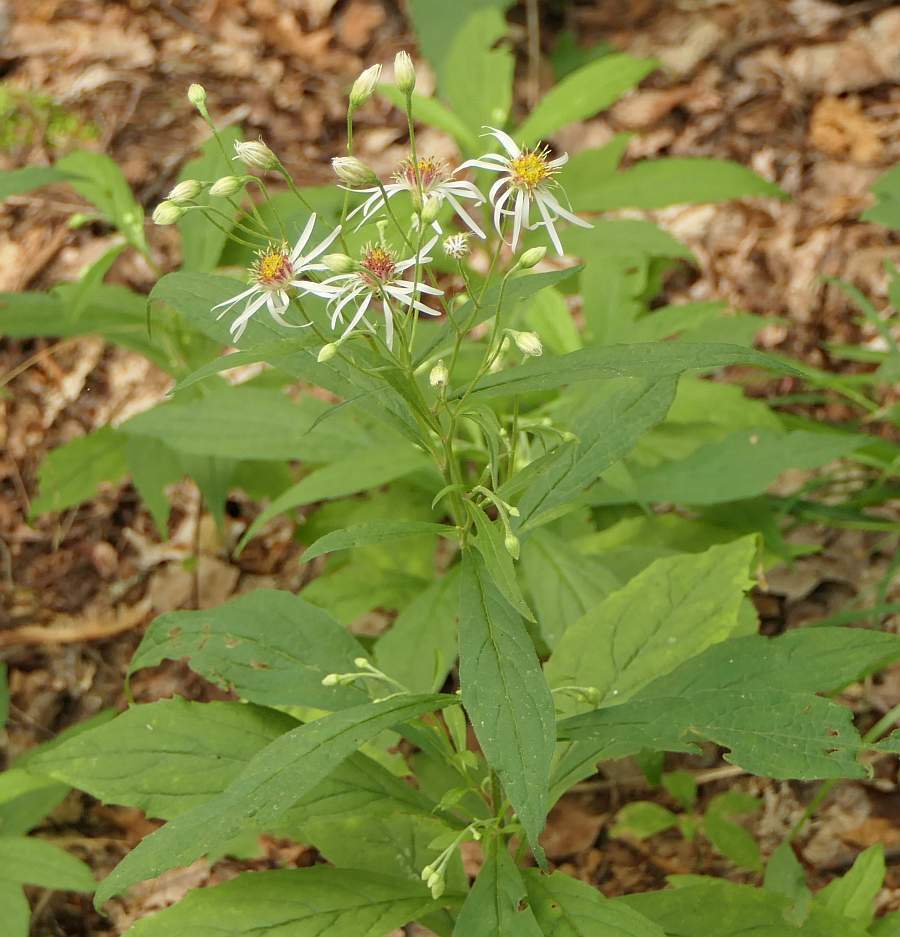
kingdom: Plantae
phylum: Tracheophyta
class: Magnoliopsida
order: Asterales
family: Asteraceae
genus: Oclemena
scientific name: Oclemena acuminata
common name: Mountain aster
